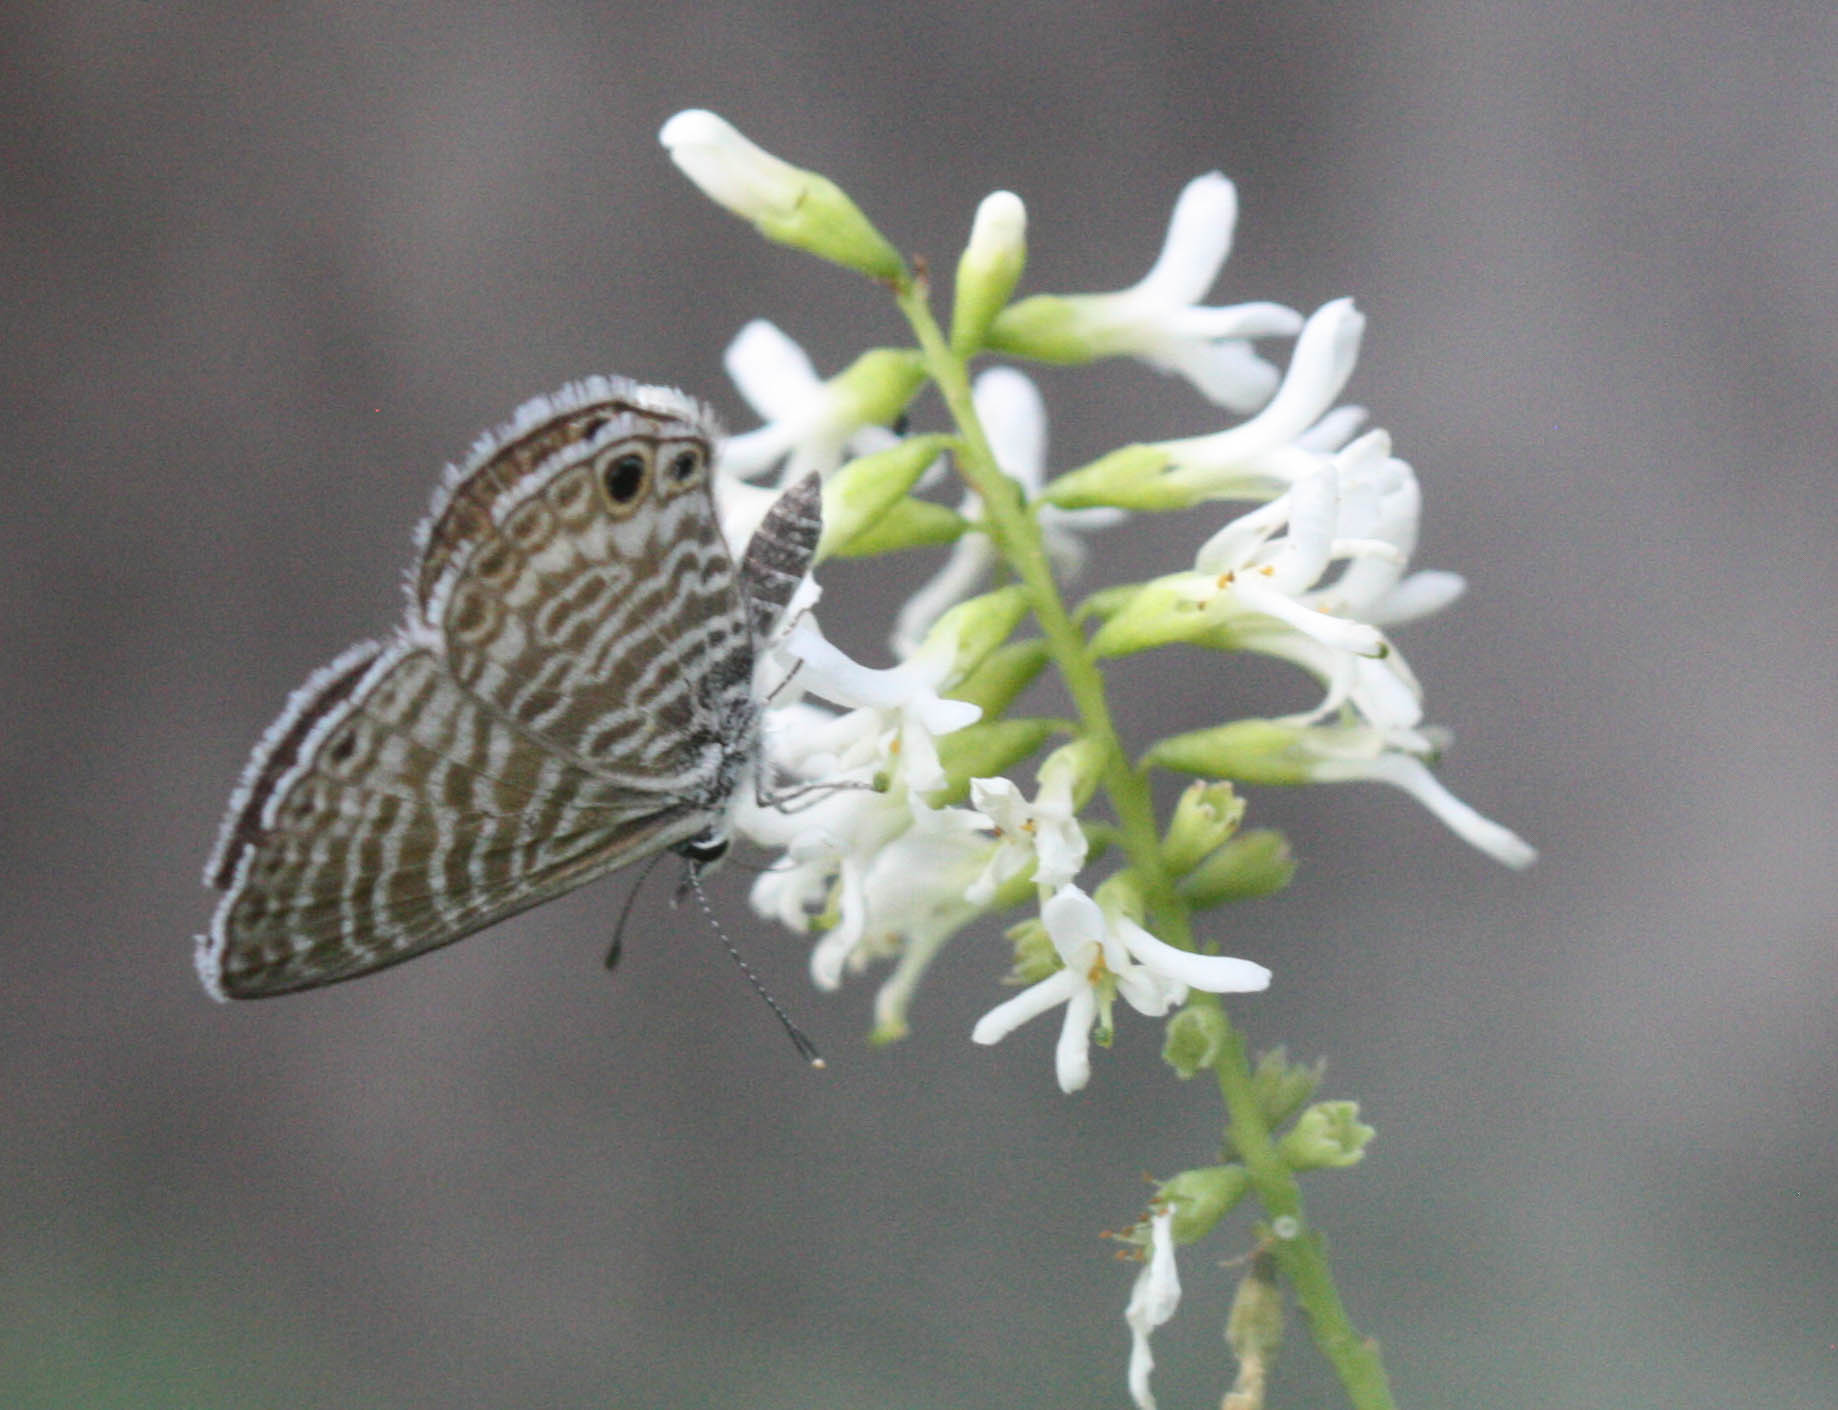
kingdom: Animalia
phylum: Arthropoda
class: Insecta
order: Lepidoptera
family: Lycaenidae
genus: Leptotes
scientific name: Leptotes marina
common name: Marine blue
